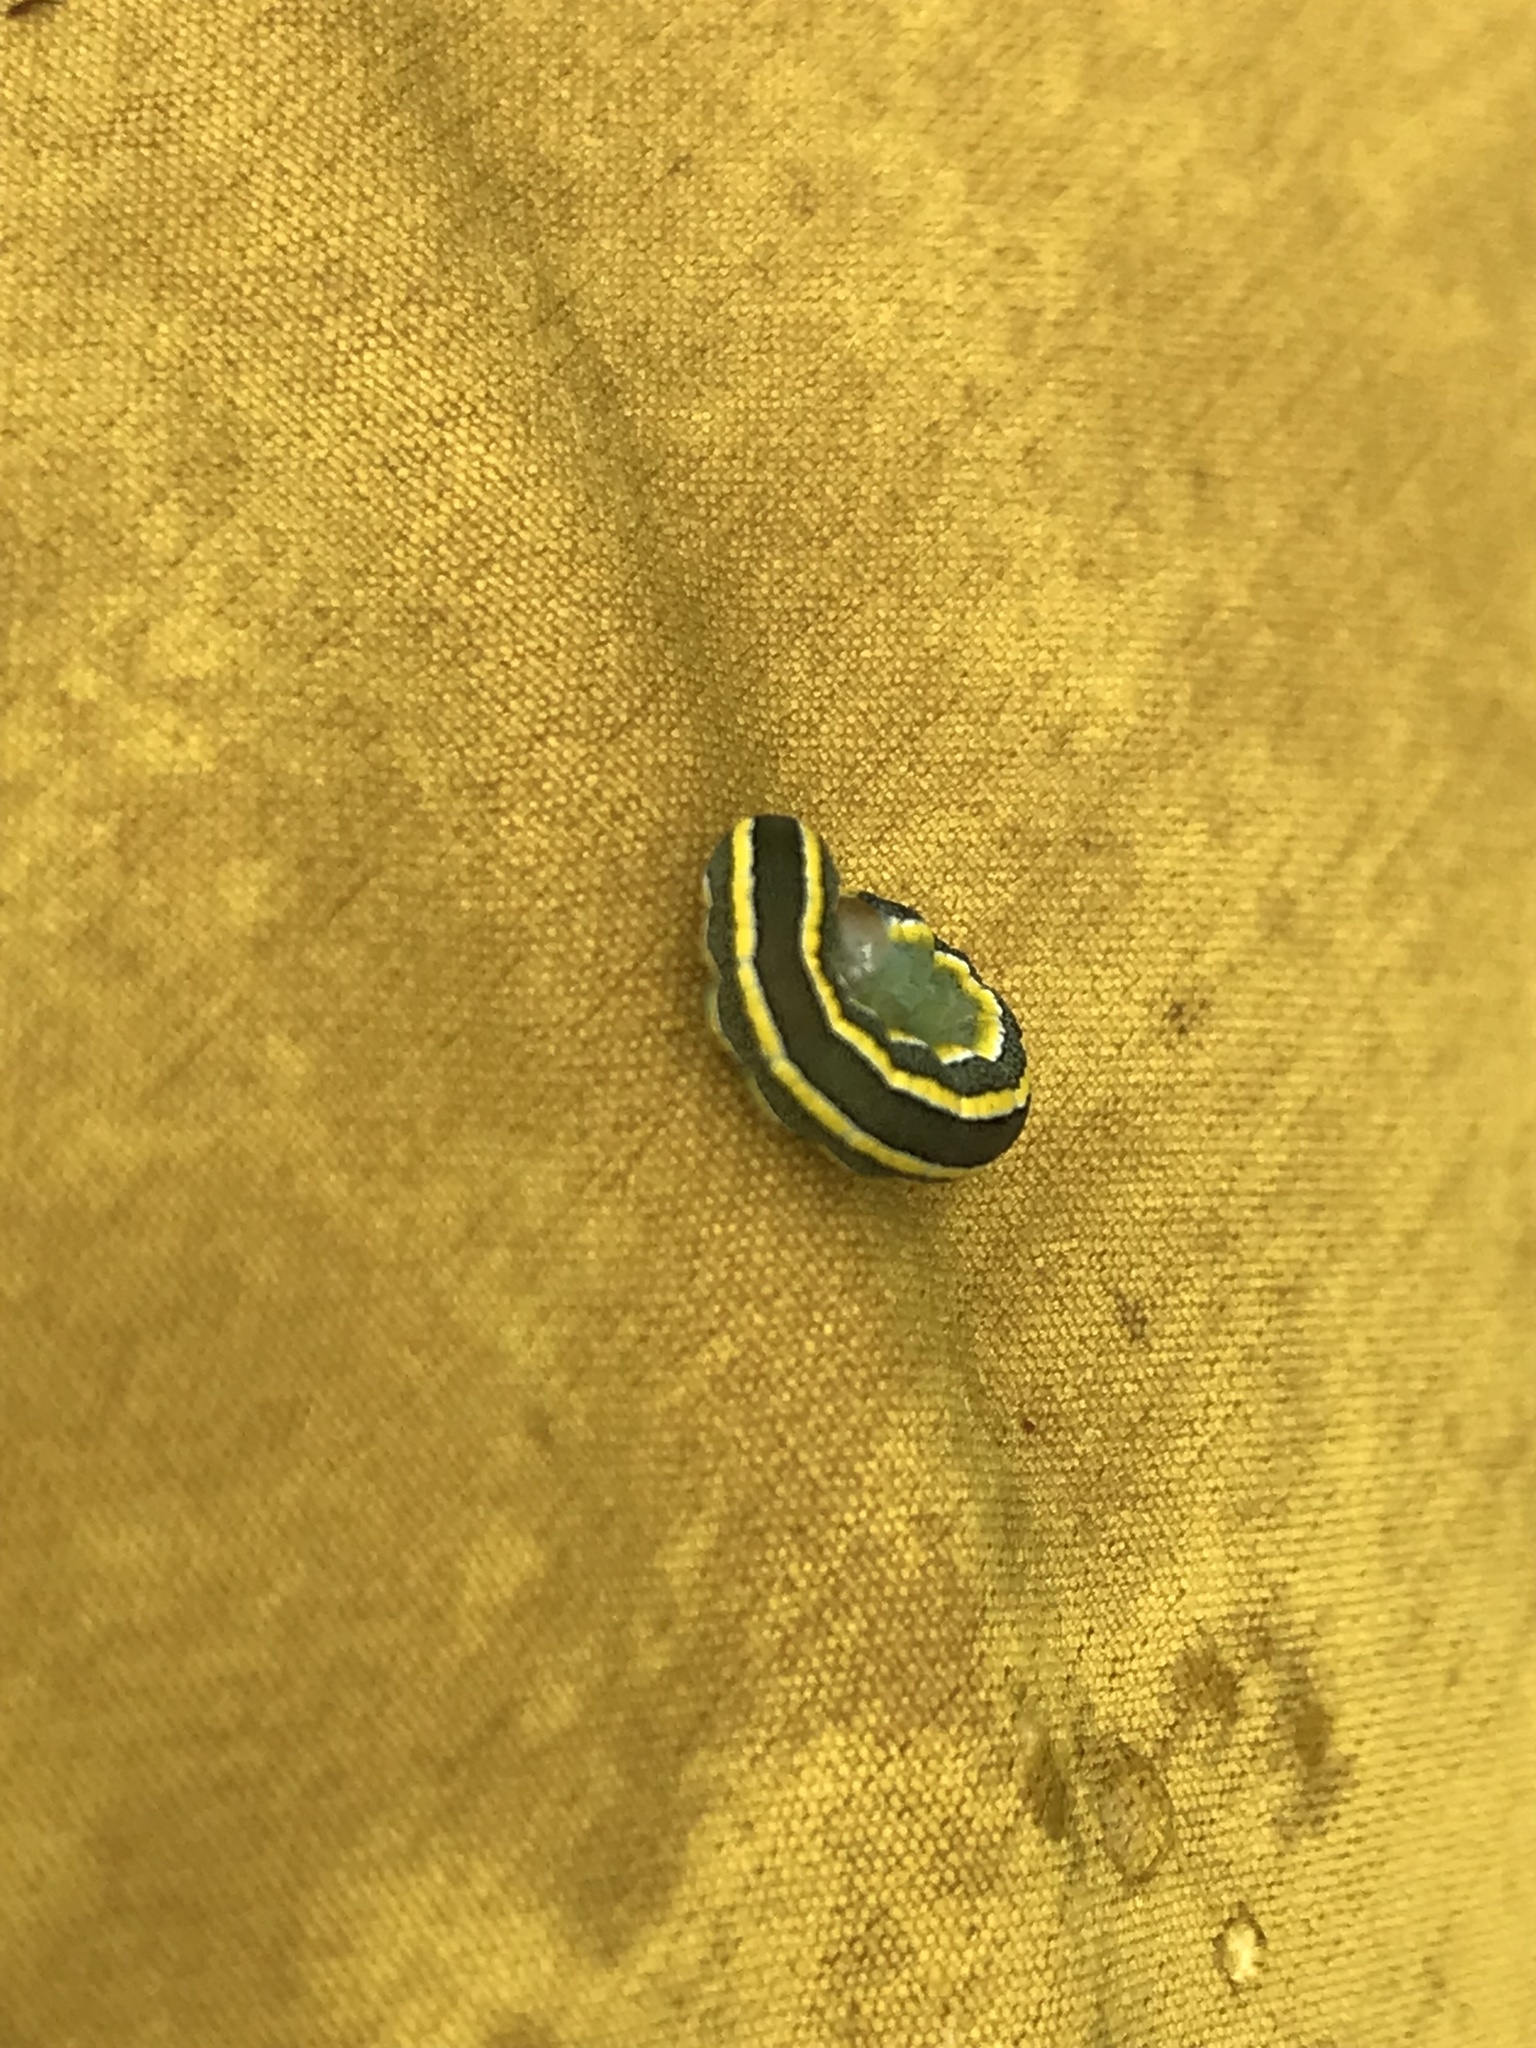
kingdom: Animalia
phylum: Arthropoda
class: Insecta
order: Lepidoptera
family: Noctuidae
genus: Ceramica
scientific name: Ceramica pisi
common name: Broom moth
